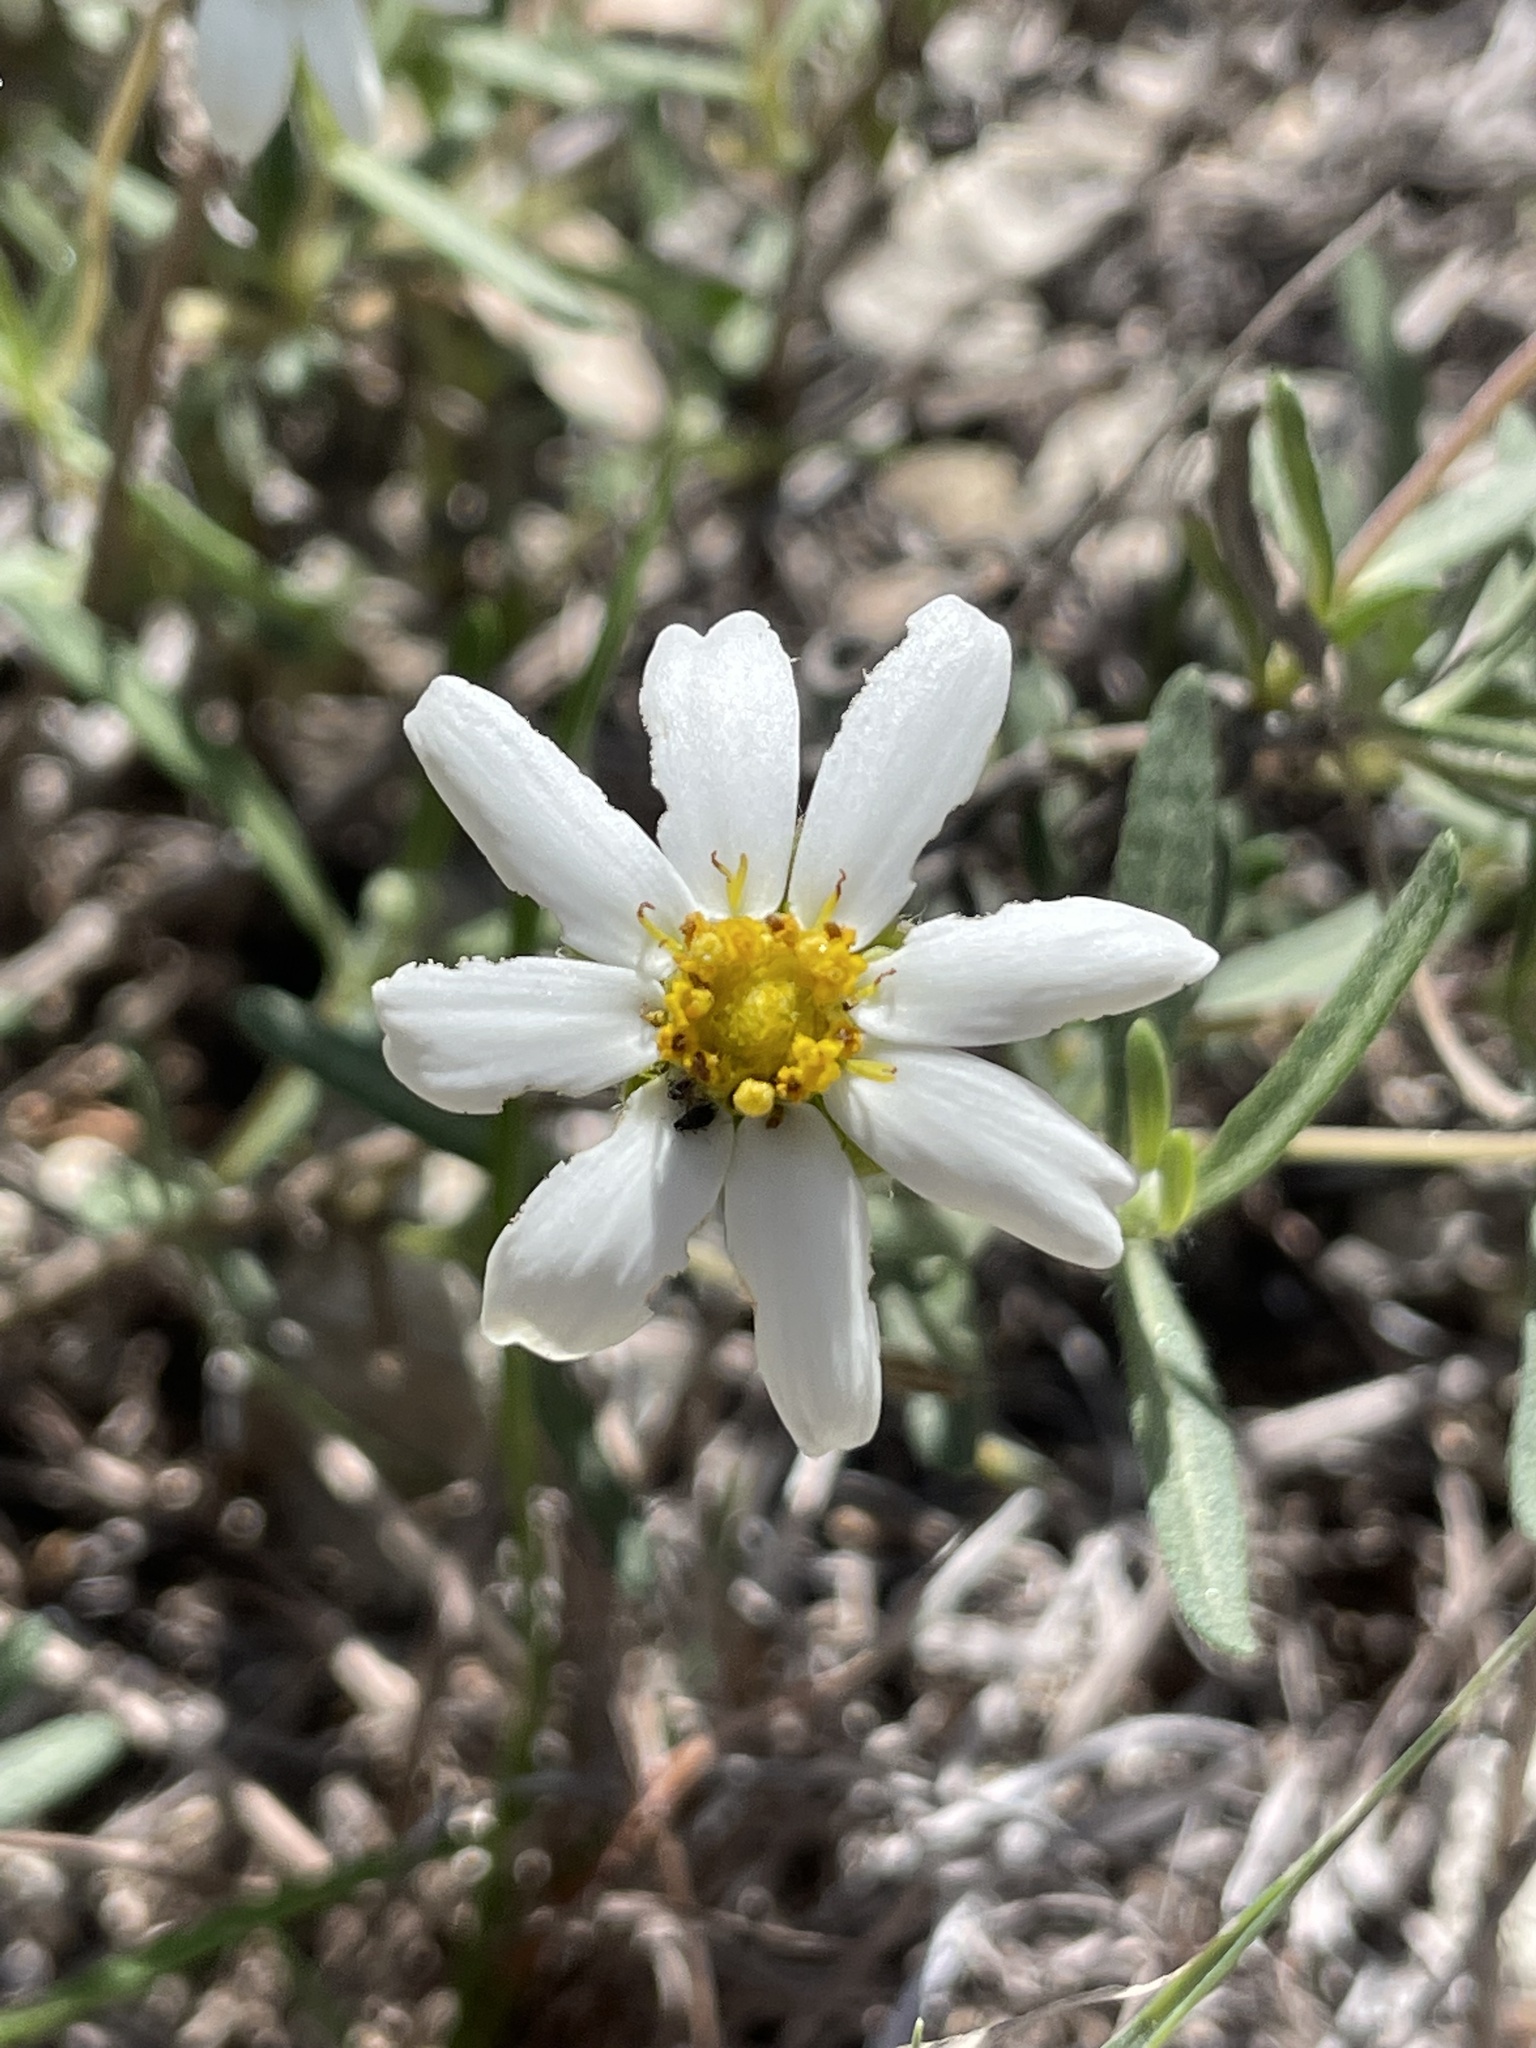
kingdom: Plantae
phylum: Tracheophyta
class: Magnoliopsida
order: Asterales
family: Asteraceae
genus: Melampodium
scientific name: Melampodium leucanthum
